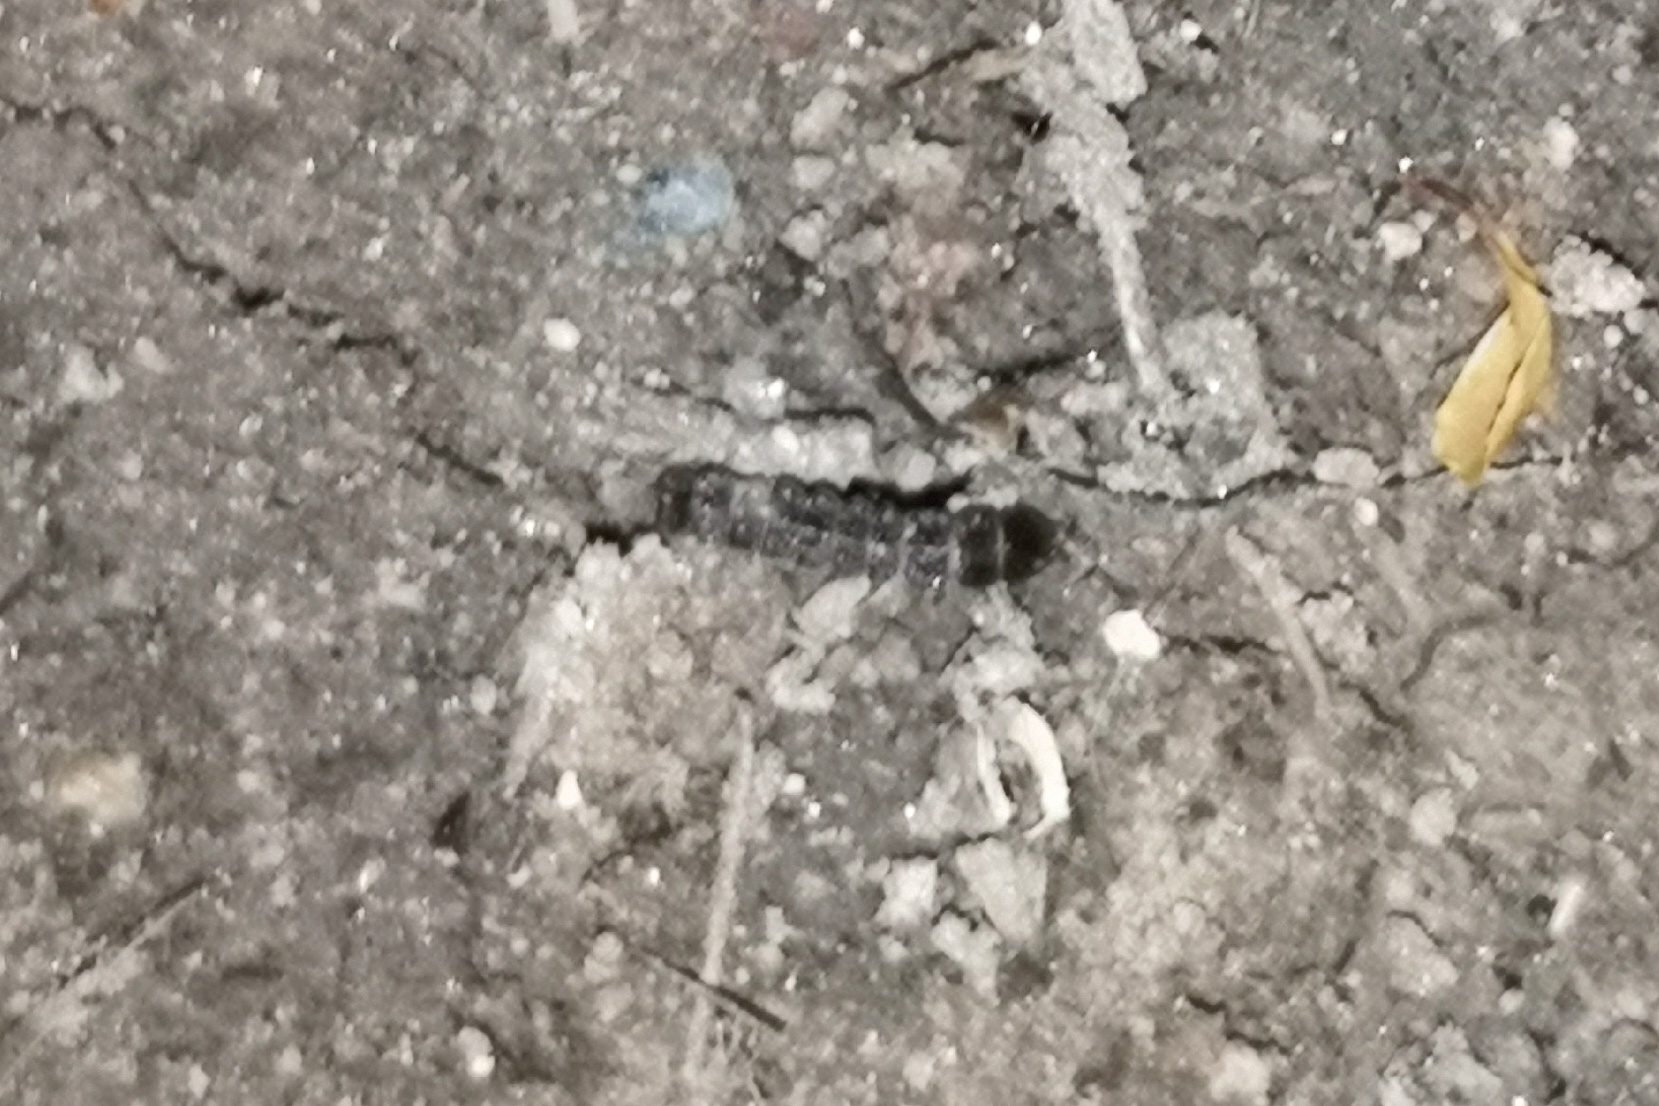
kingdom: Animalia
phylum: Arthropoda
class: Insecta
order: Coleoptera
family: Lampyridae
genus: Phosphaenus
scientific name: Phosphaenus hemipterus
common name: Short-winged firefly
